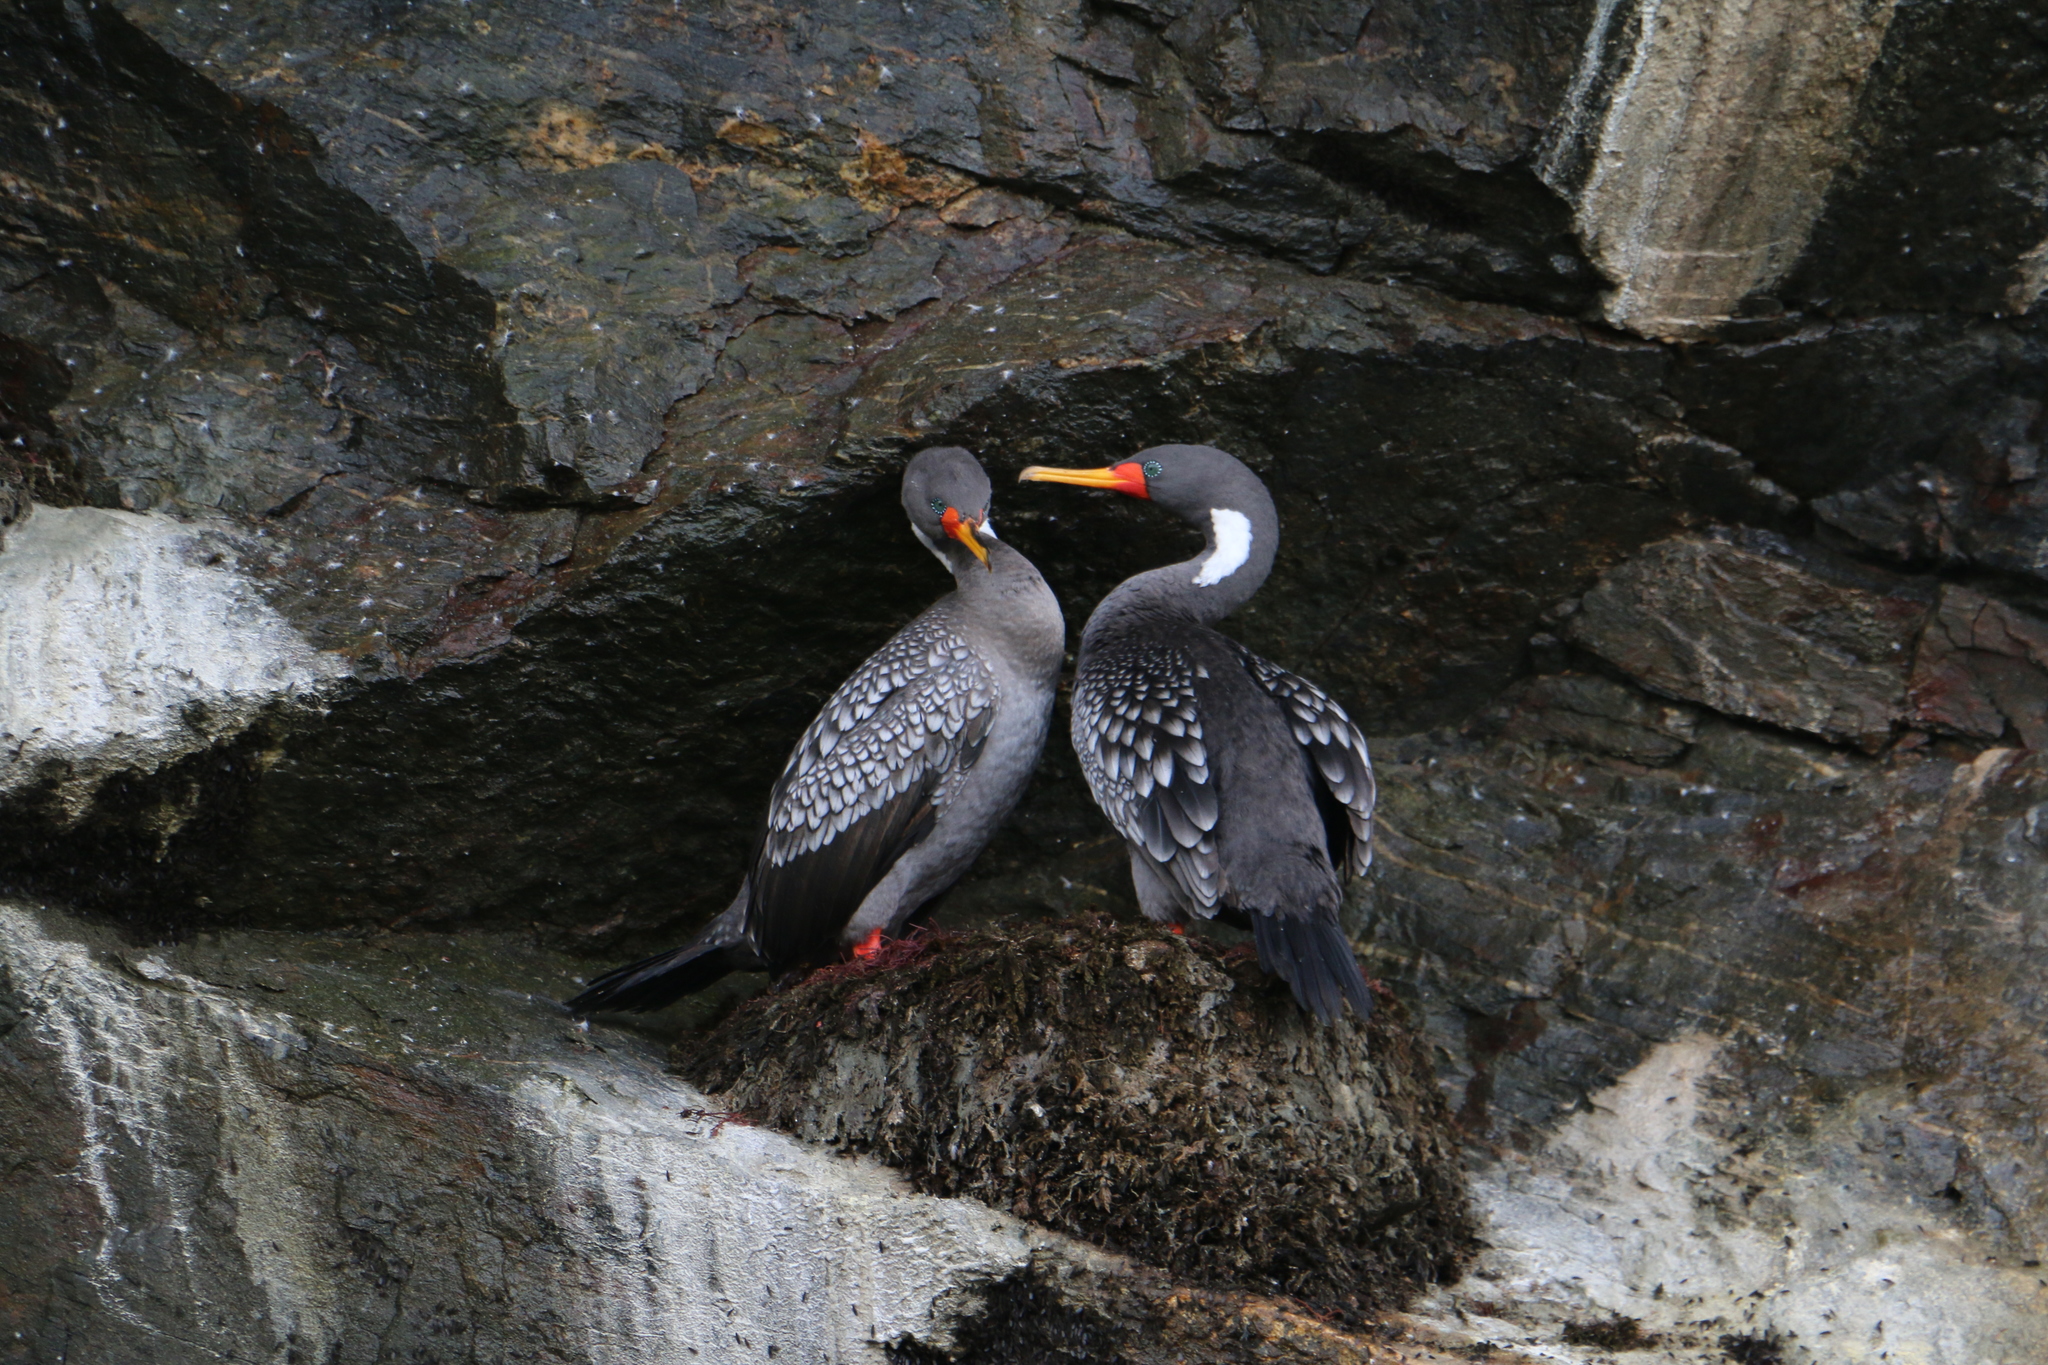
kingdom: Animalia
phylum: Chordata
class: Aves
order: Suliformes
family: Phalacrocoracidae
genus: Phalacrocorax
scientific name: Phalacrocorax gaimardi
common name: Red-legged cormorant
